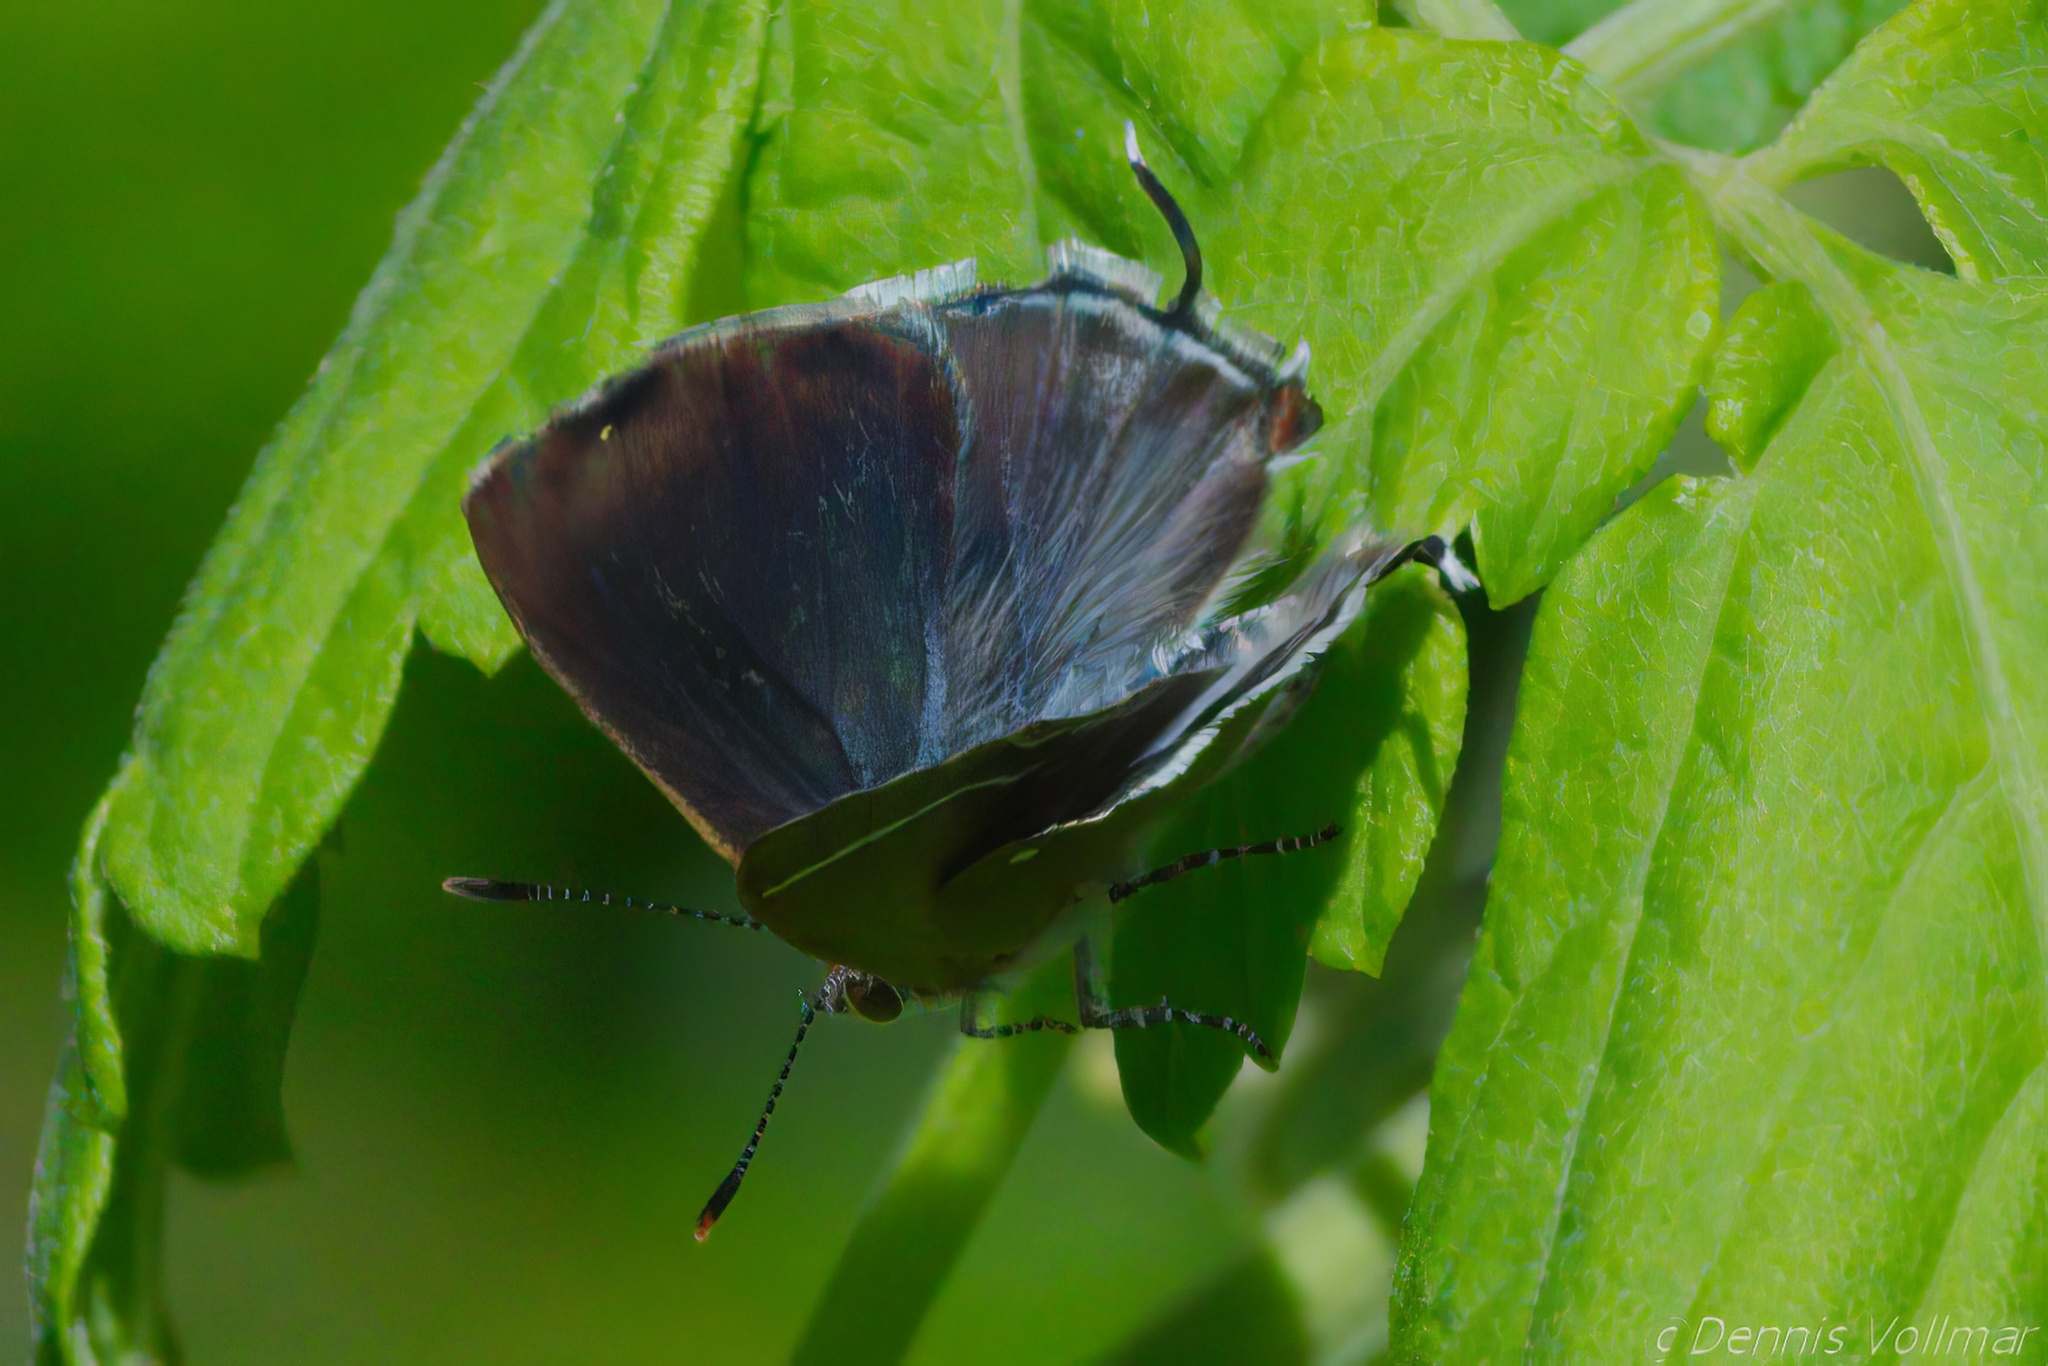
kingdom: Animalia
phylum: Arthropoda
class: Insecta
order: Lepidoptera
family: Lycaenidae
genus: Chlorostrymon
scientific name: Chlorostrymon simaethis
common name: Silver-banded hairstreak
